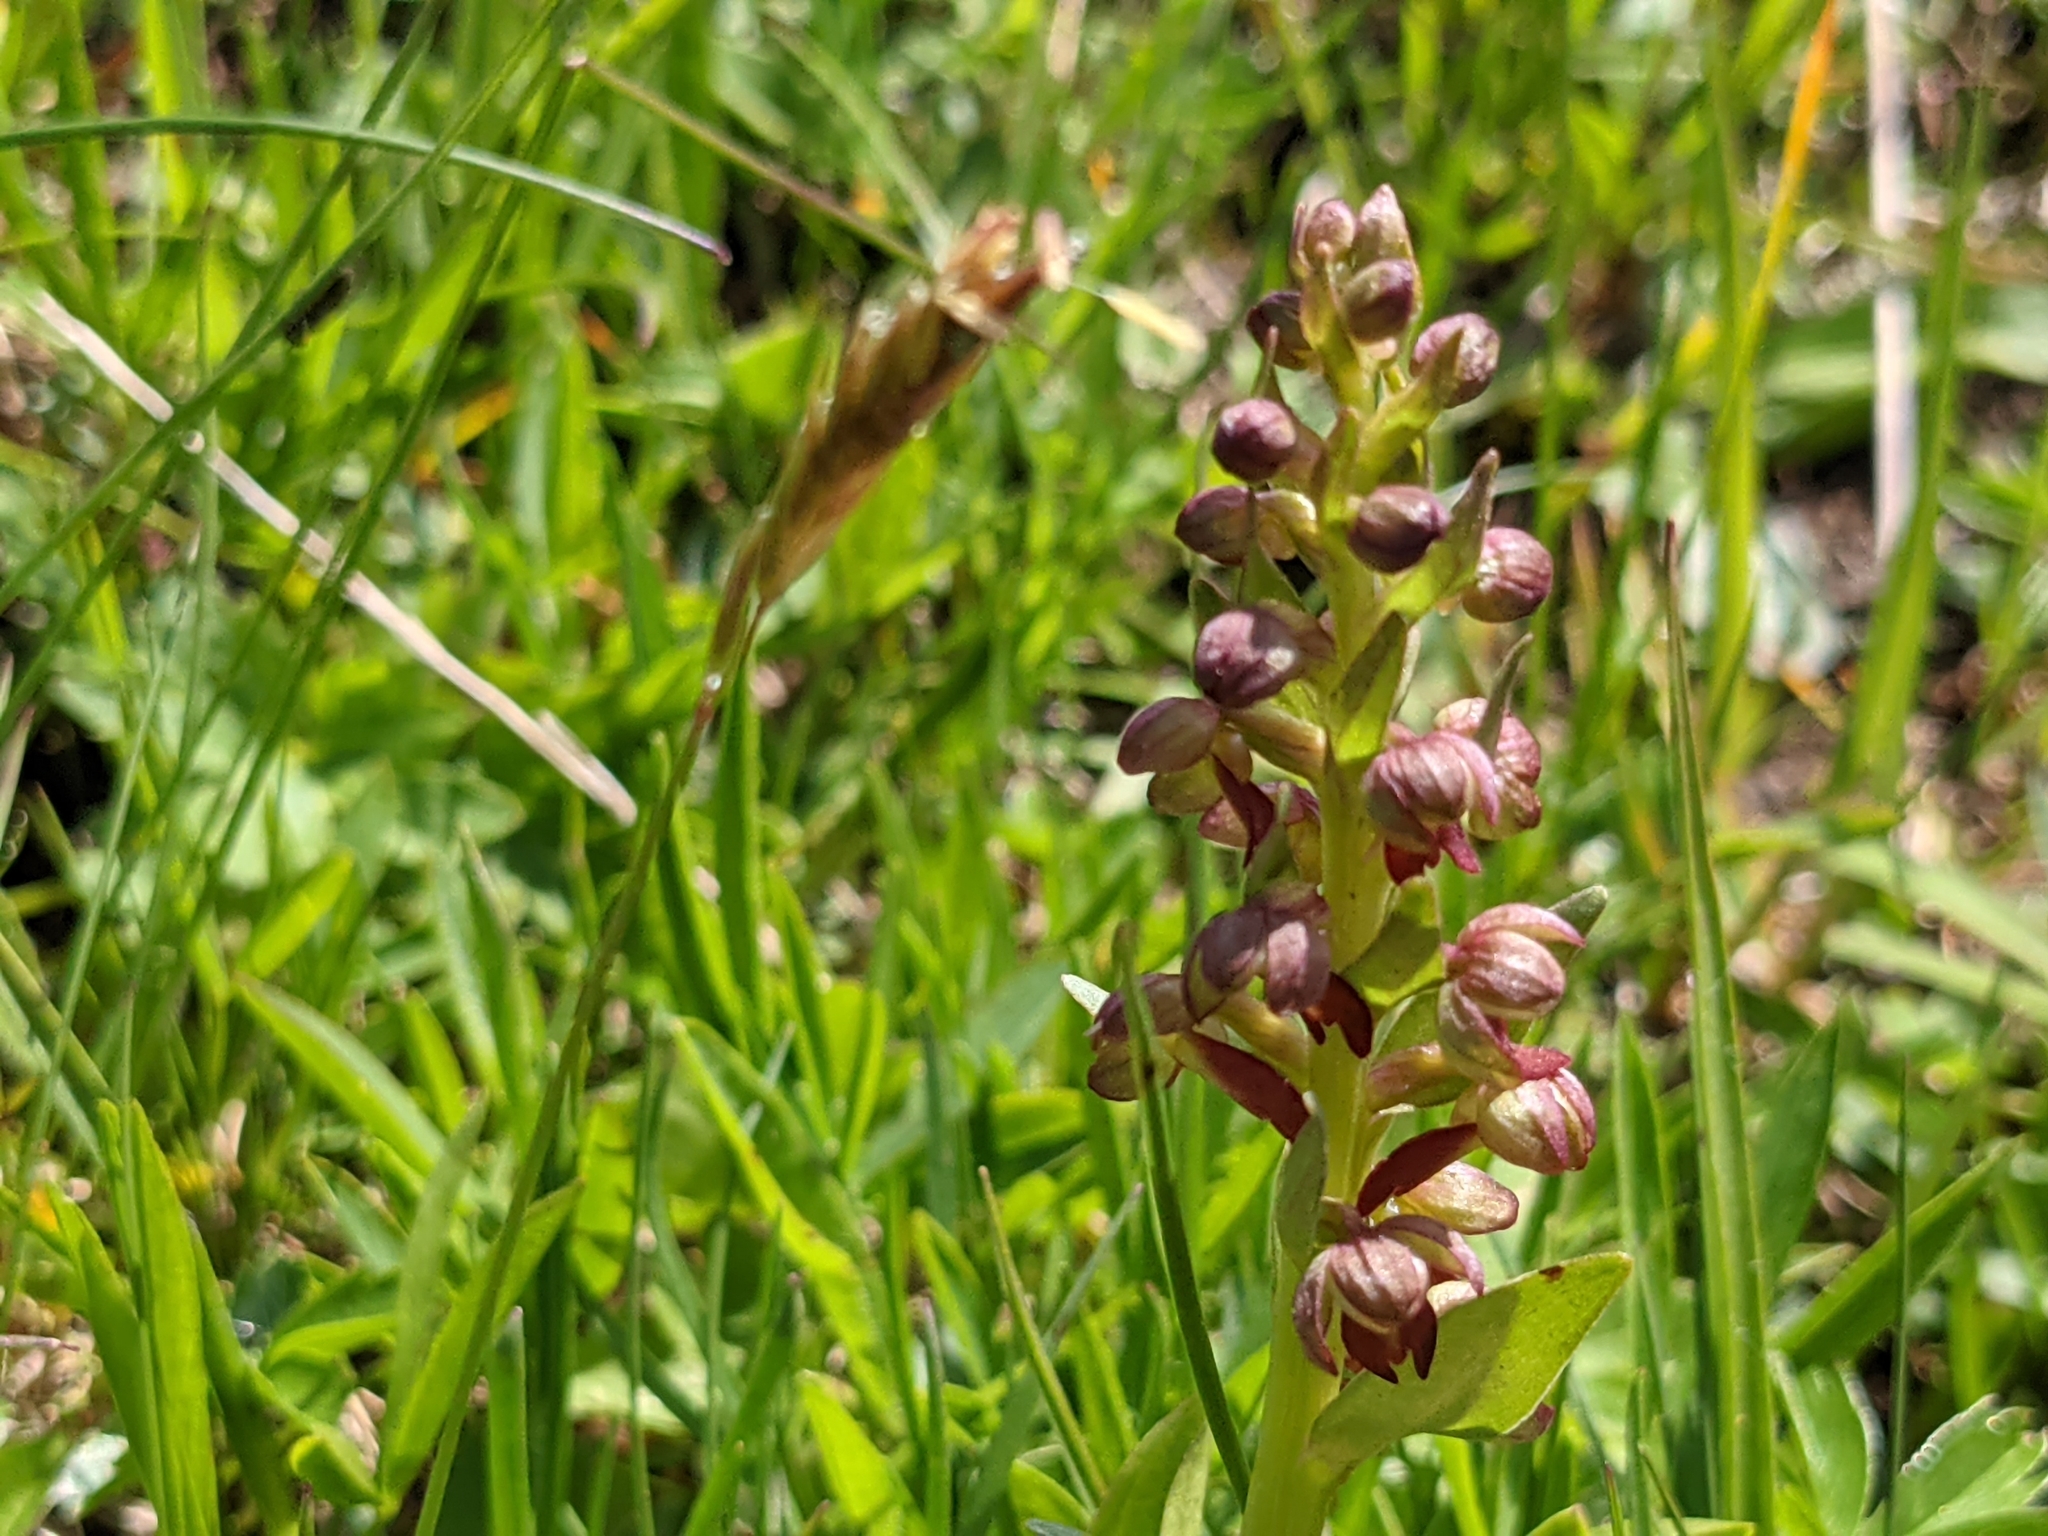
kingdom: Plantae
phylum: Tracheophyta
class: Liliopsida
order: Asparagales
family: Orchidaceae
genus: Dactylorhiza
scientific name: Dactylorhiza viridis
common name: Longbract frog orchid
